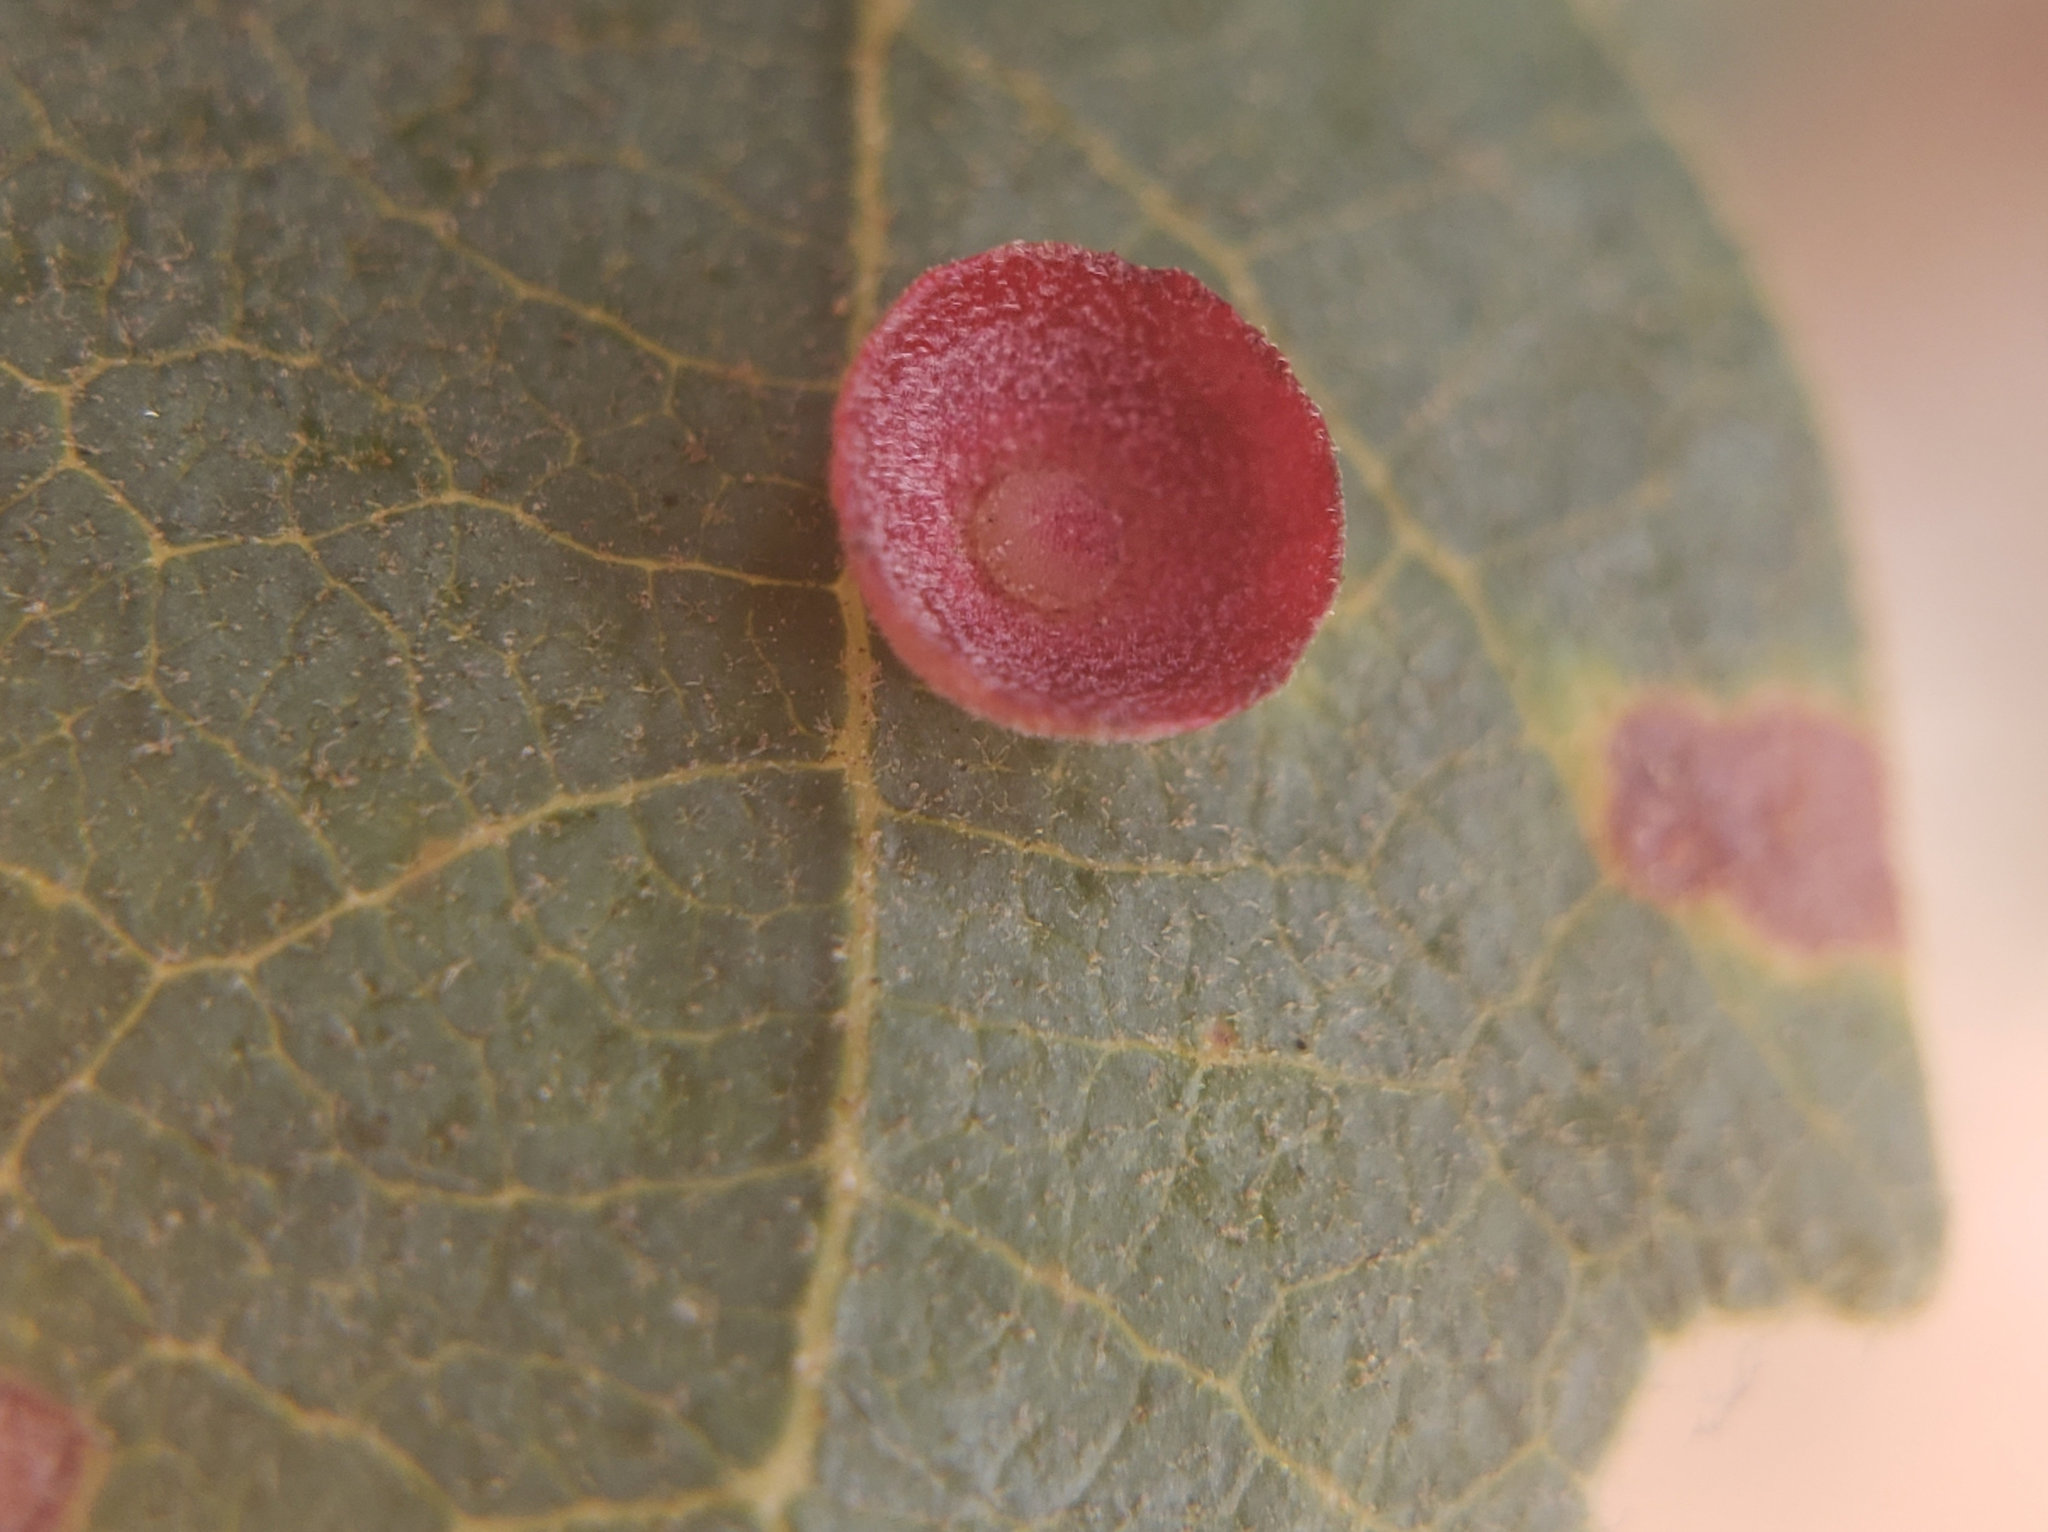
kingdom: Animalia
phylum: Arthropoda
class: Insecta
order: Hymenoptera
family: Cynipidae
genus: Andricus
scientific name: Andricus
